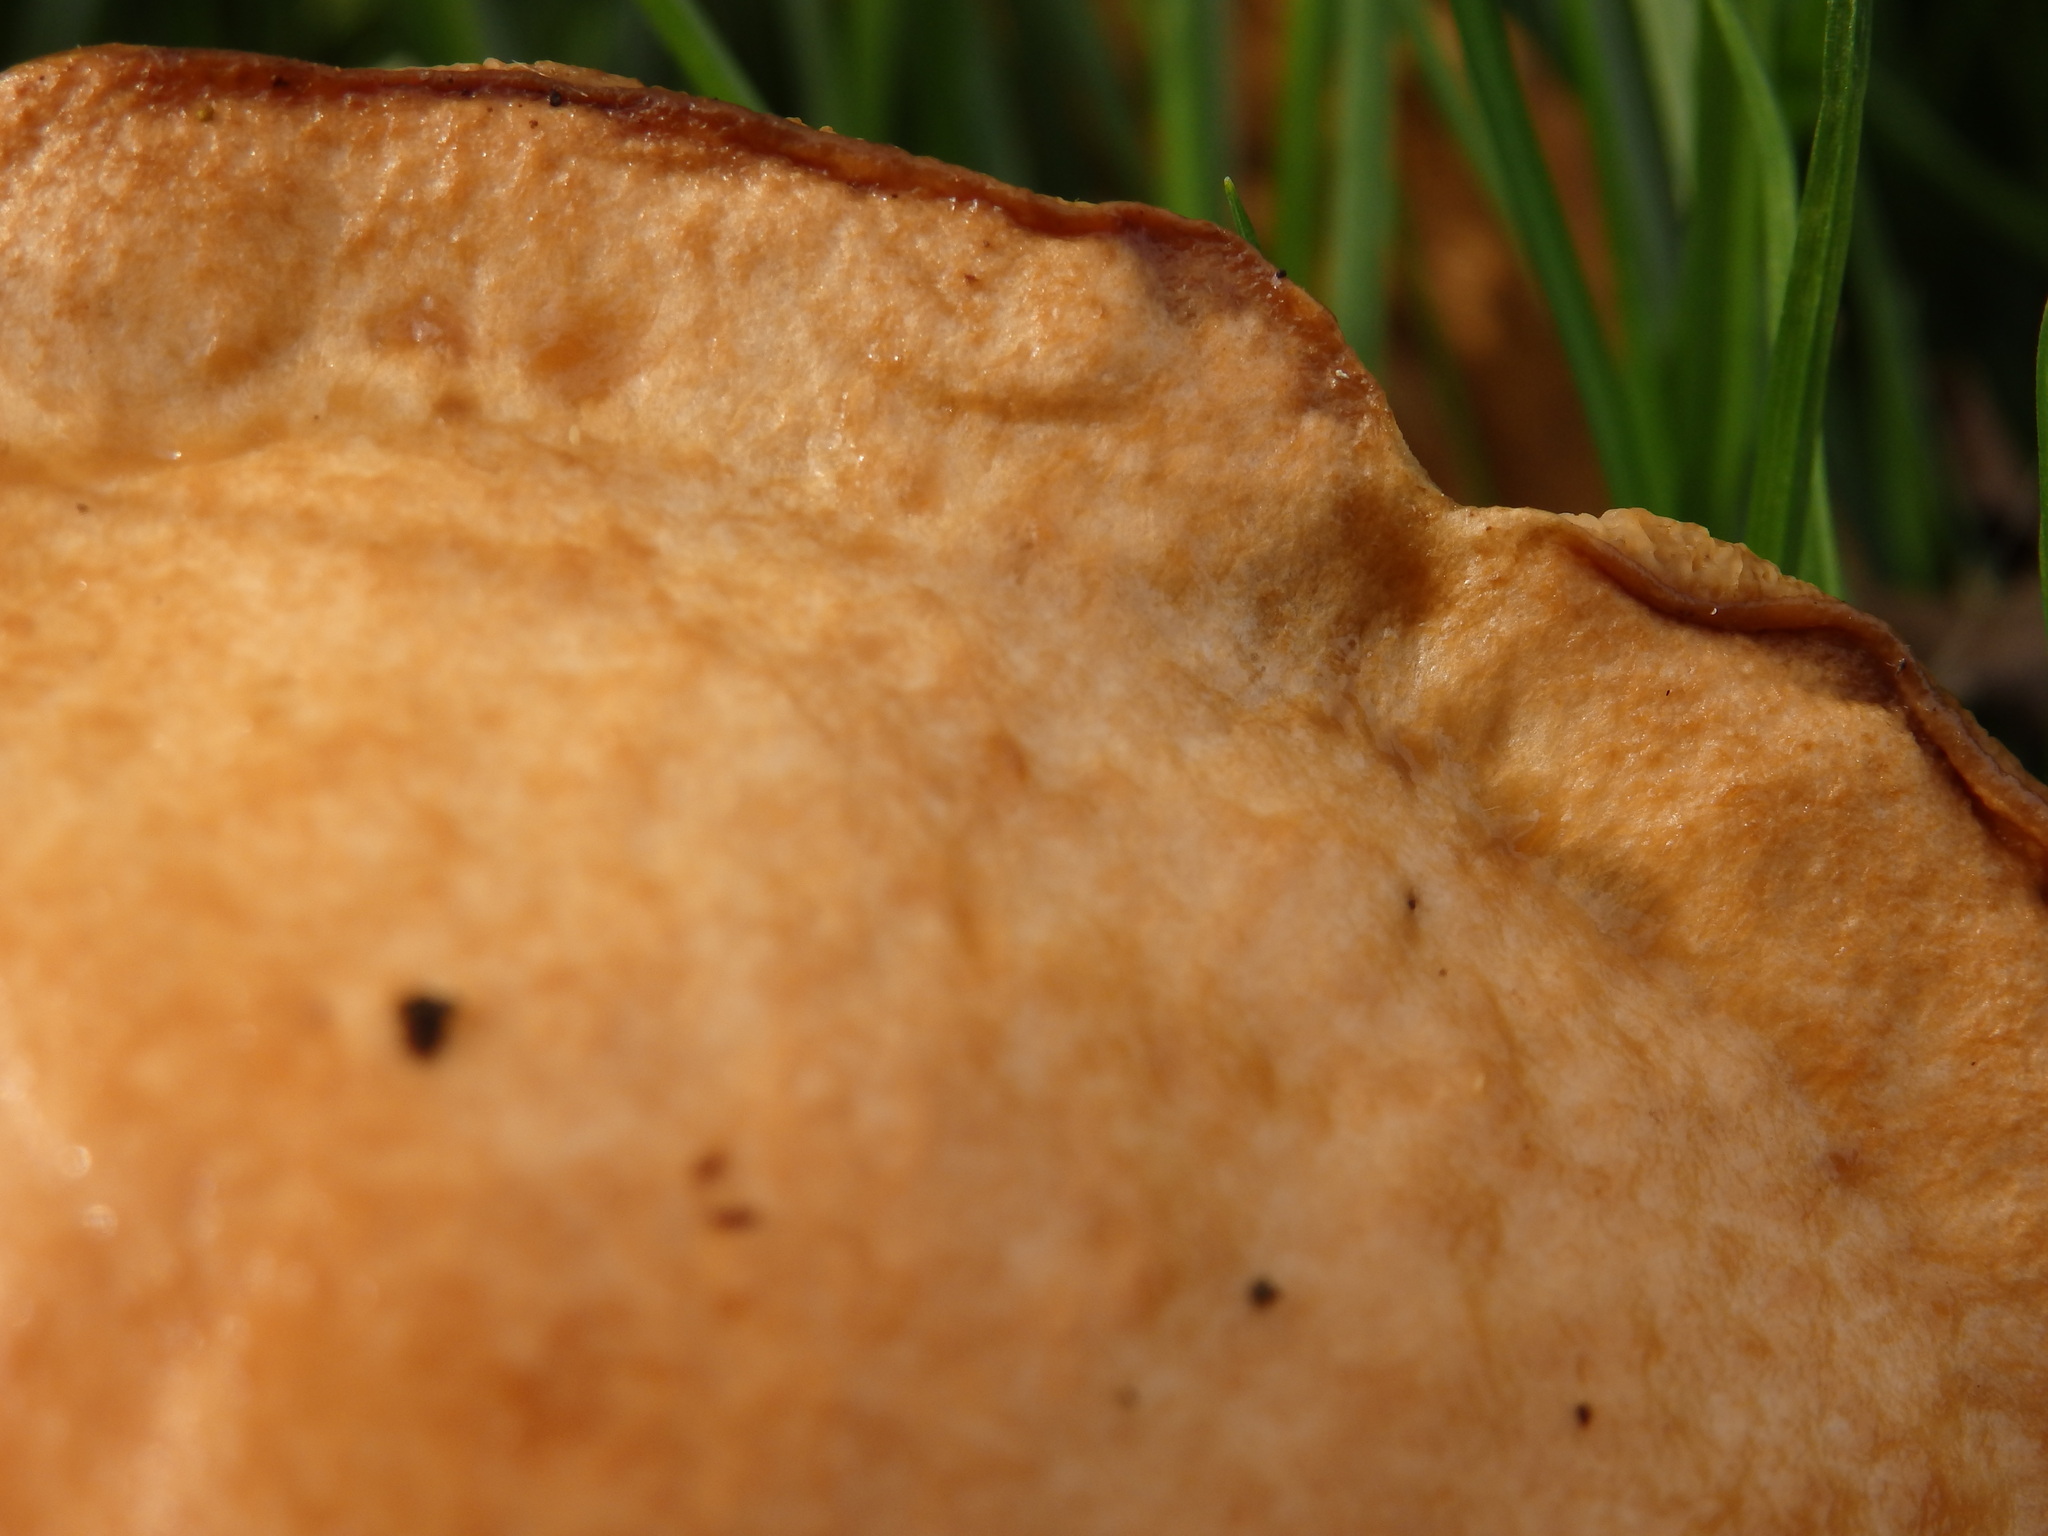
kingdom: Fungi
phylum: Basidiomycota
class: Agaricomycetes
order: Boletales
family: Suillaceae
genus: Suillus
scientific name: Suillus bovinus
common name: Bovine bolete
